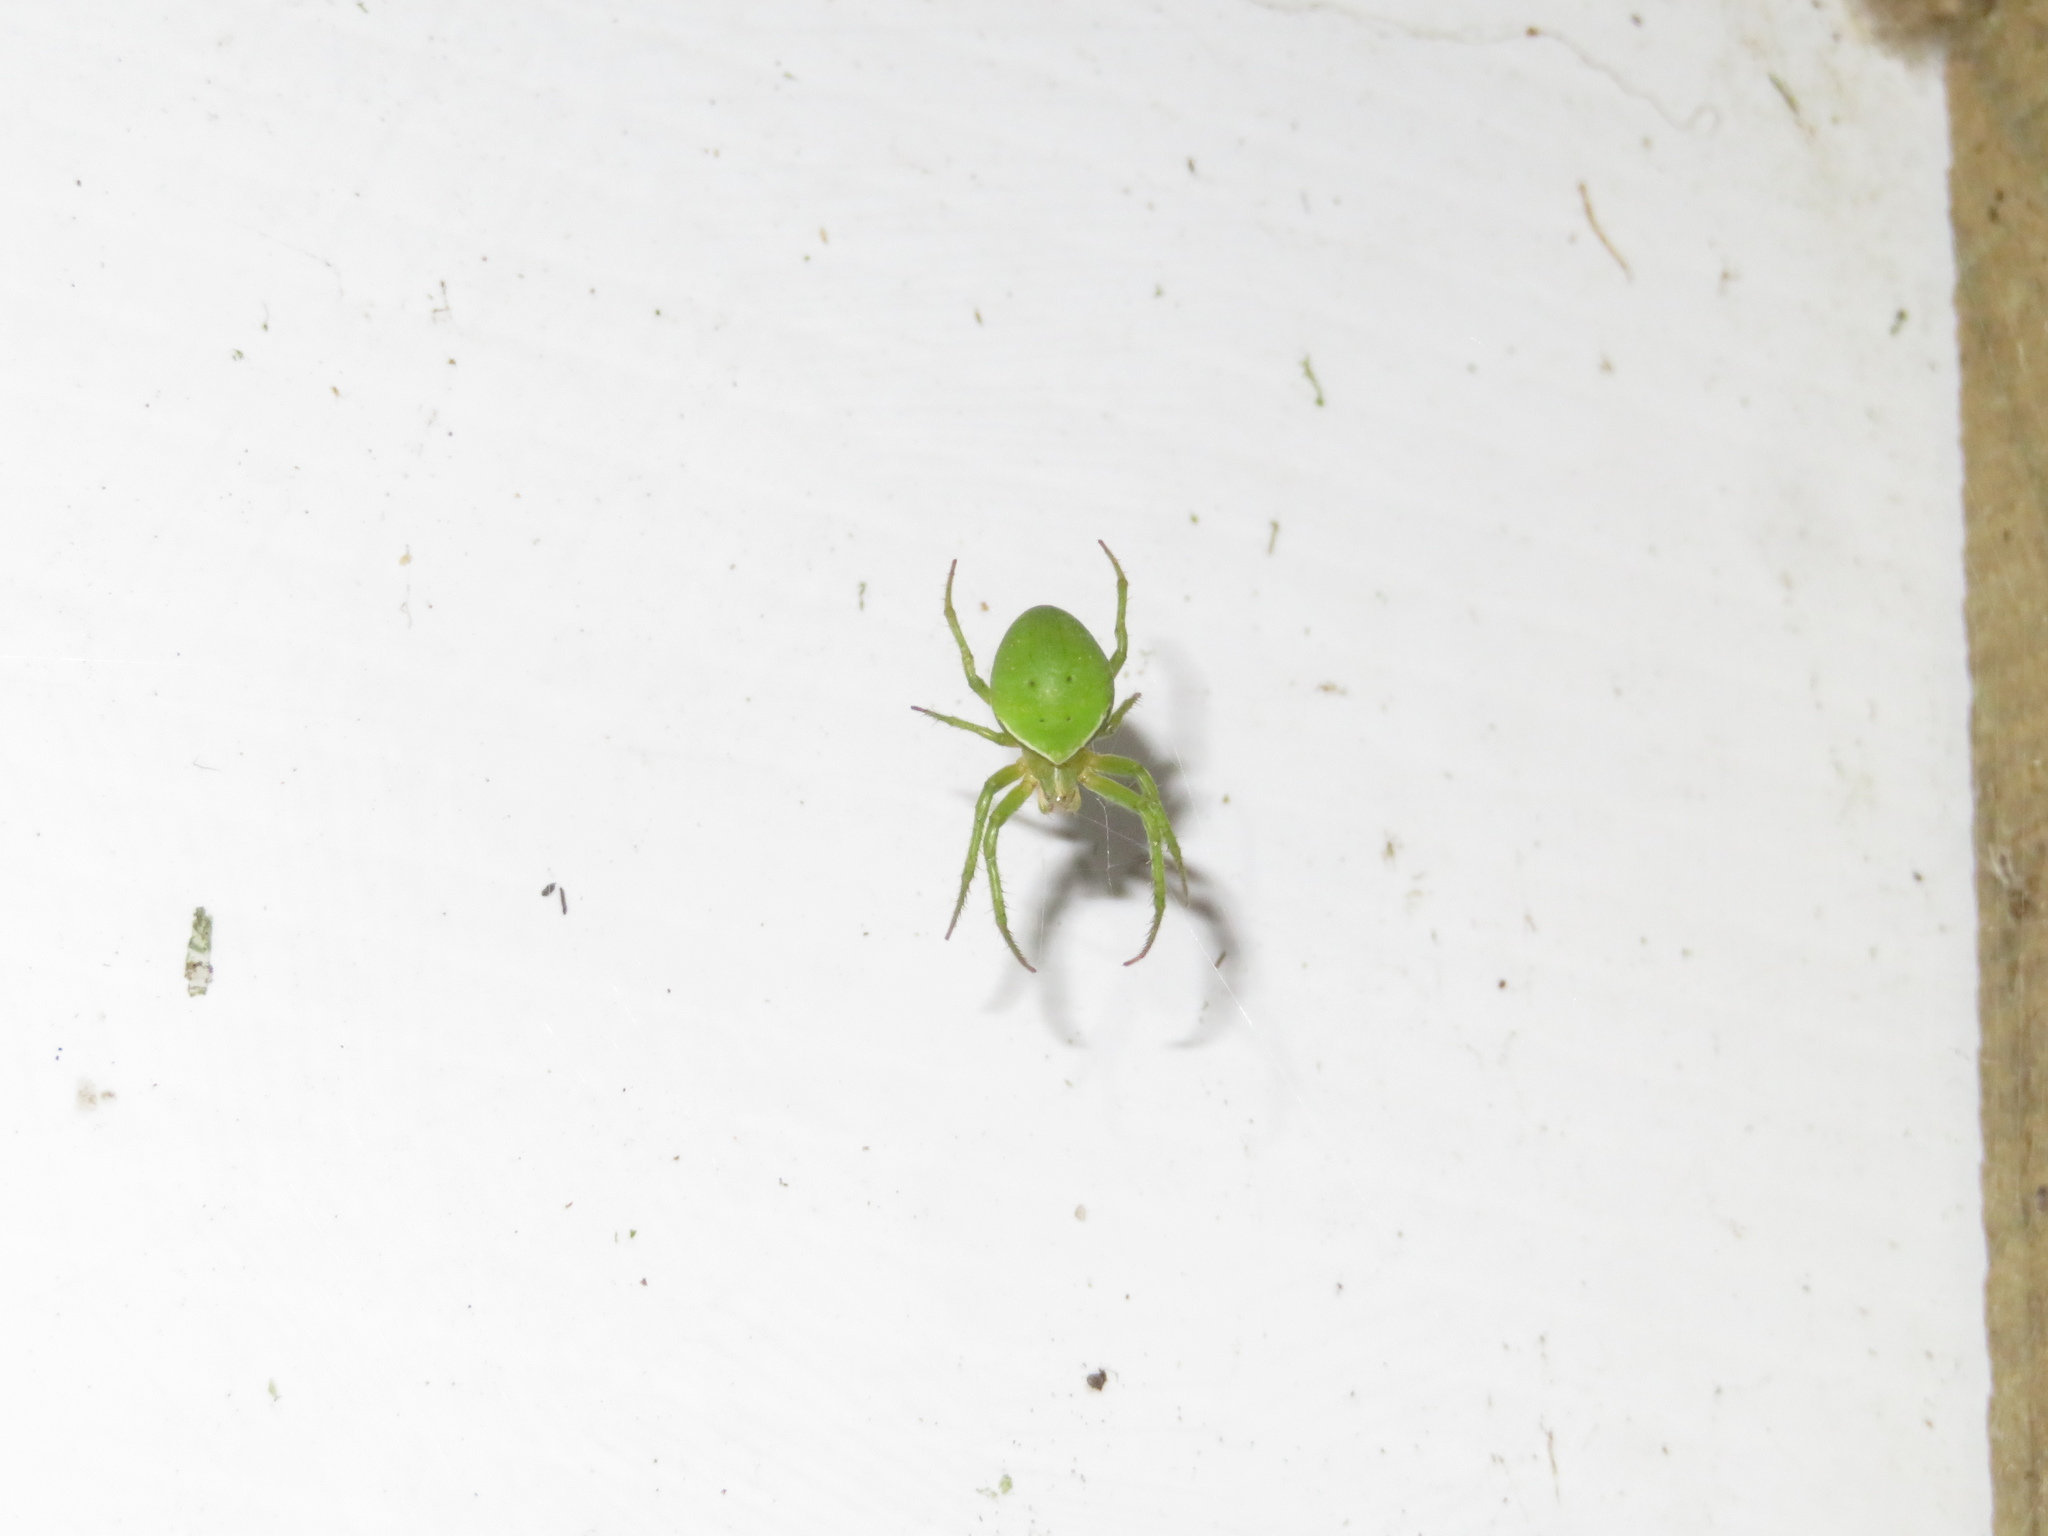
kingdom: Animalia
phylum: Arthropoda
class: Arachnida
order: Araneae
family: Araneidae
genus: Colaranea
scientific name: Colaranea viriditas
